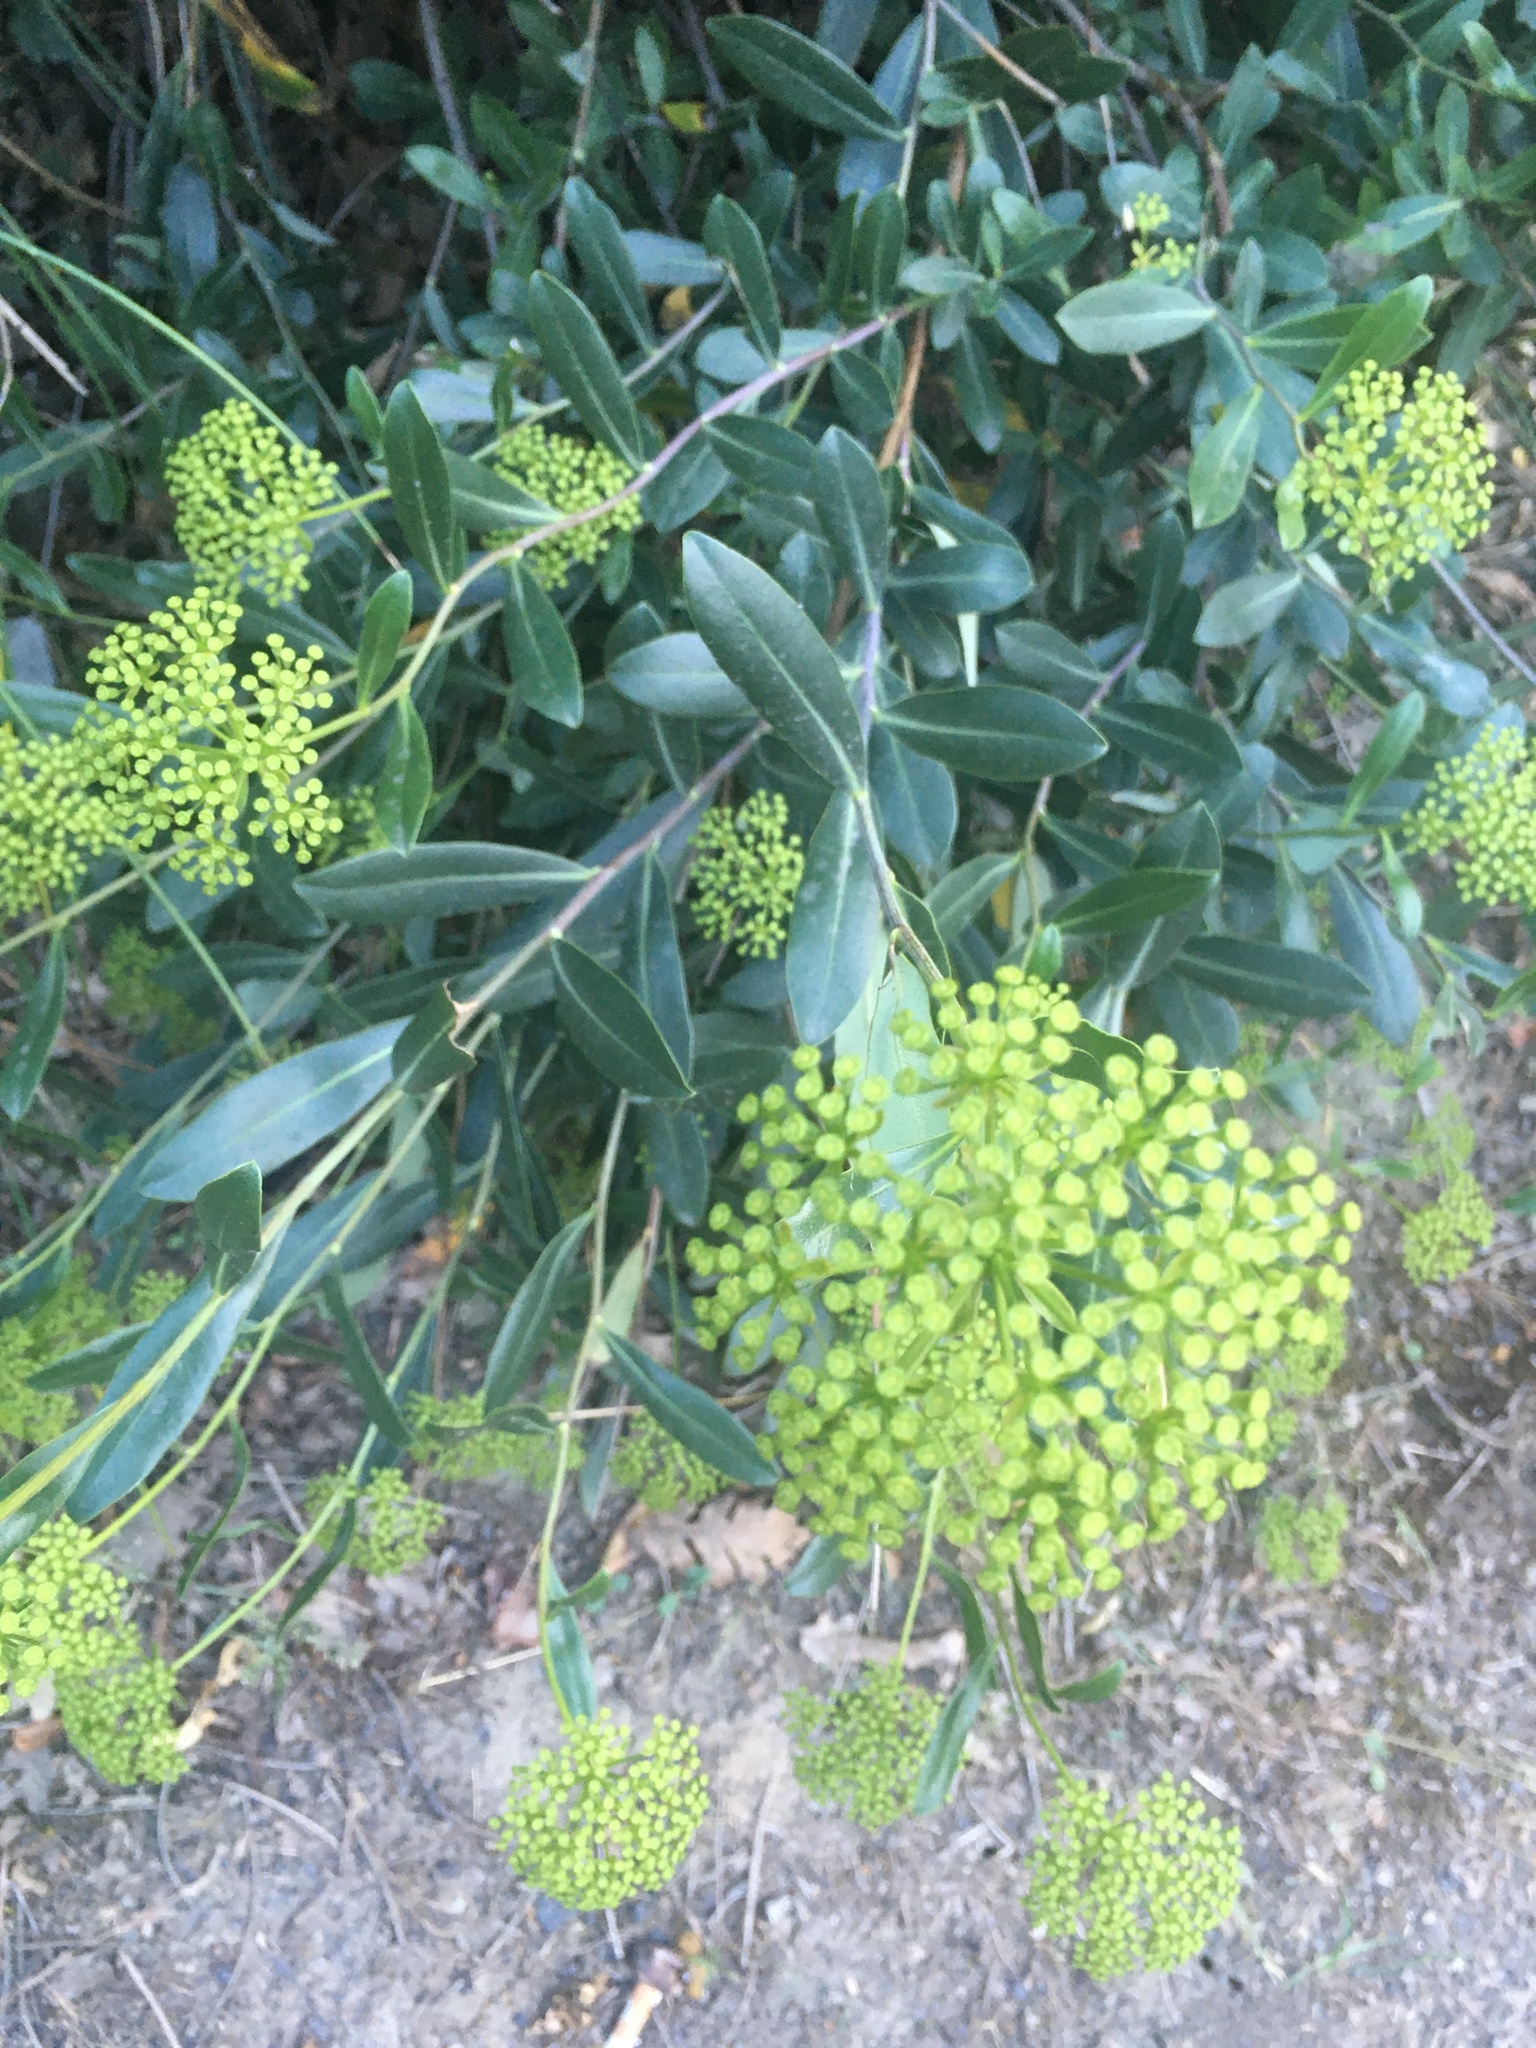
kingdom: Plantae
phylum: Tracheophyta
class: Magnoliopsida
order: Apiales
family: Apiaceae
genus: Bupleurum
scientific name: Bupleurum fruticosum
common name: Shrubby hare's-ear
